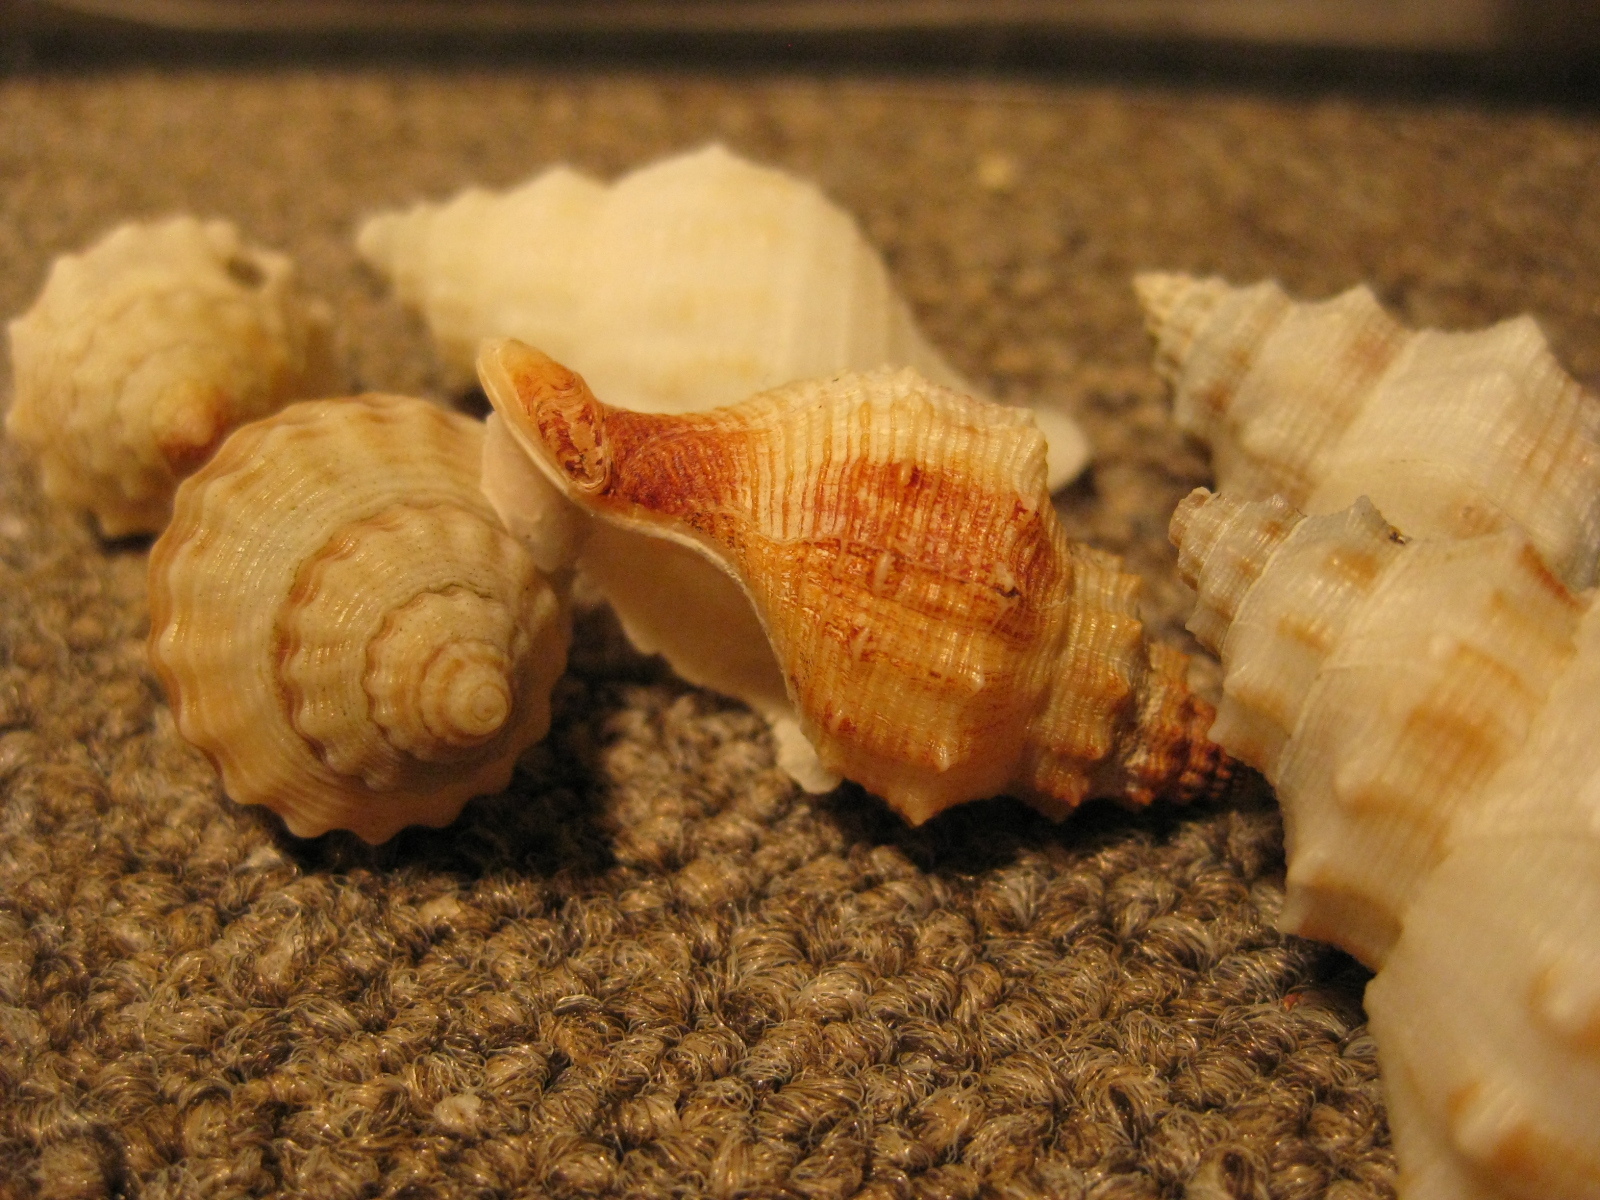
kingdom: Animalia
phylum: Mollusca
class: Gastropoda
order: Neogastropoda
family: Prosiphonidae
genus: Austrofusus
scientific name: Austrofusus glans
